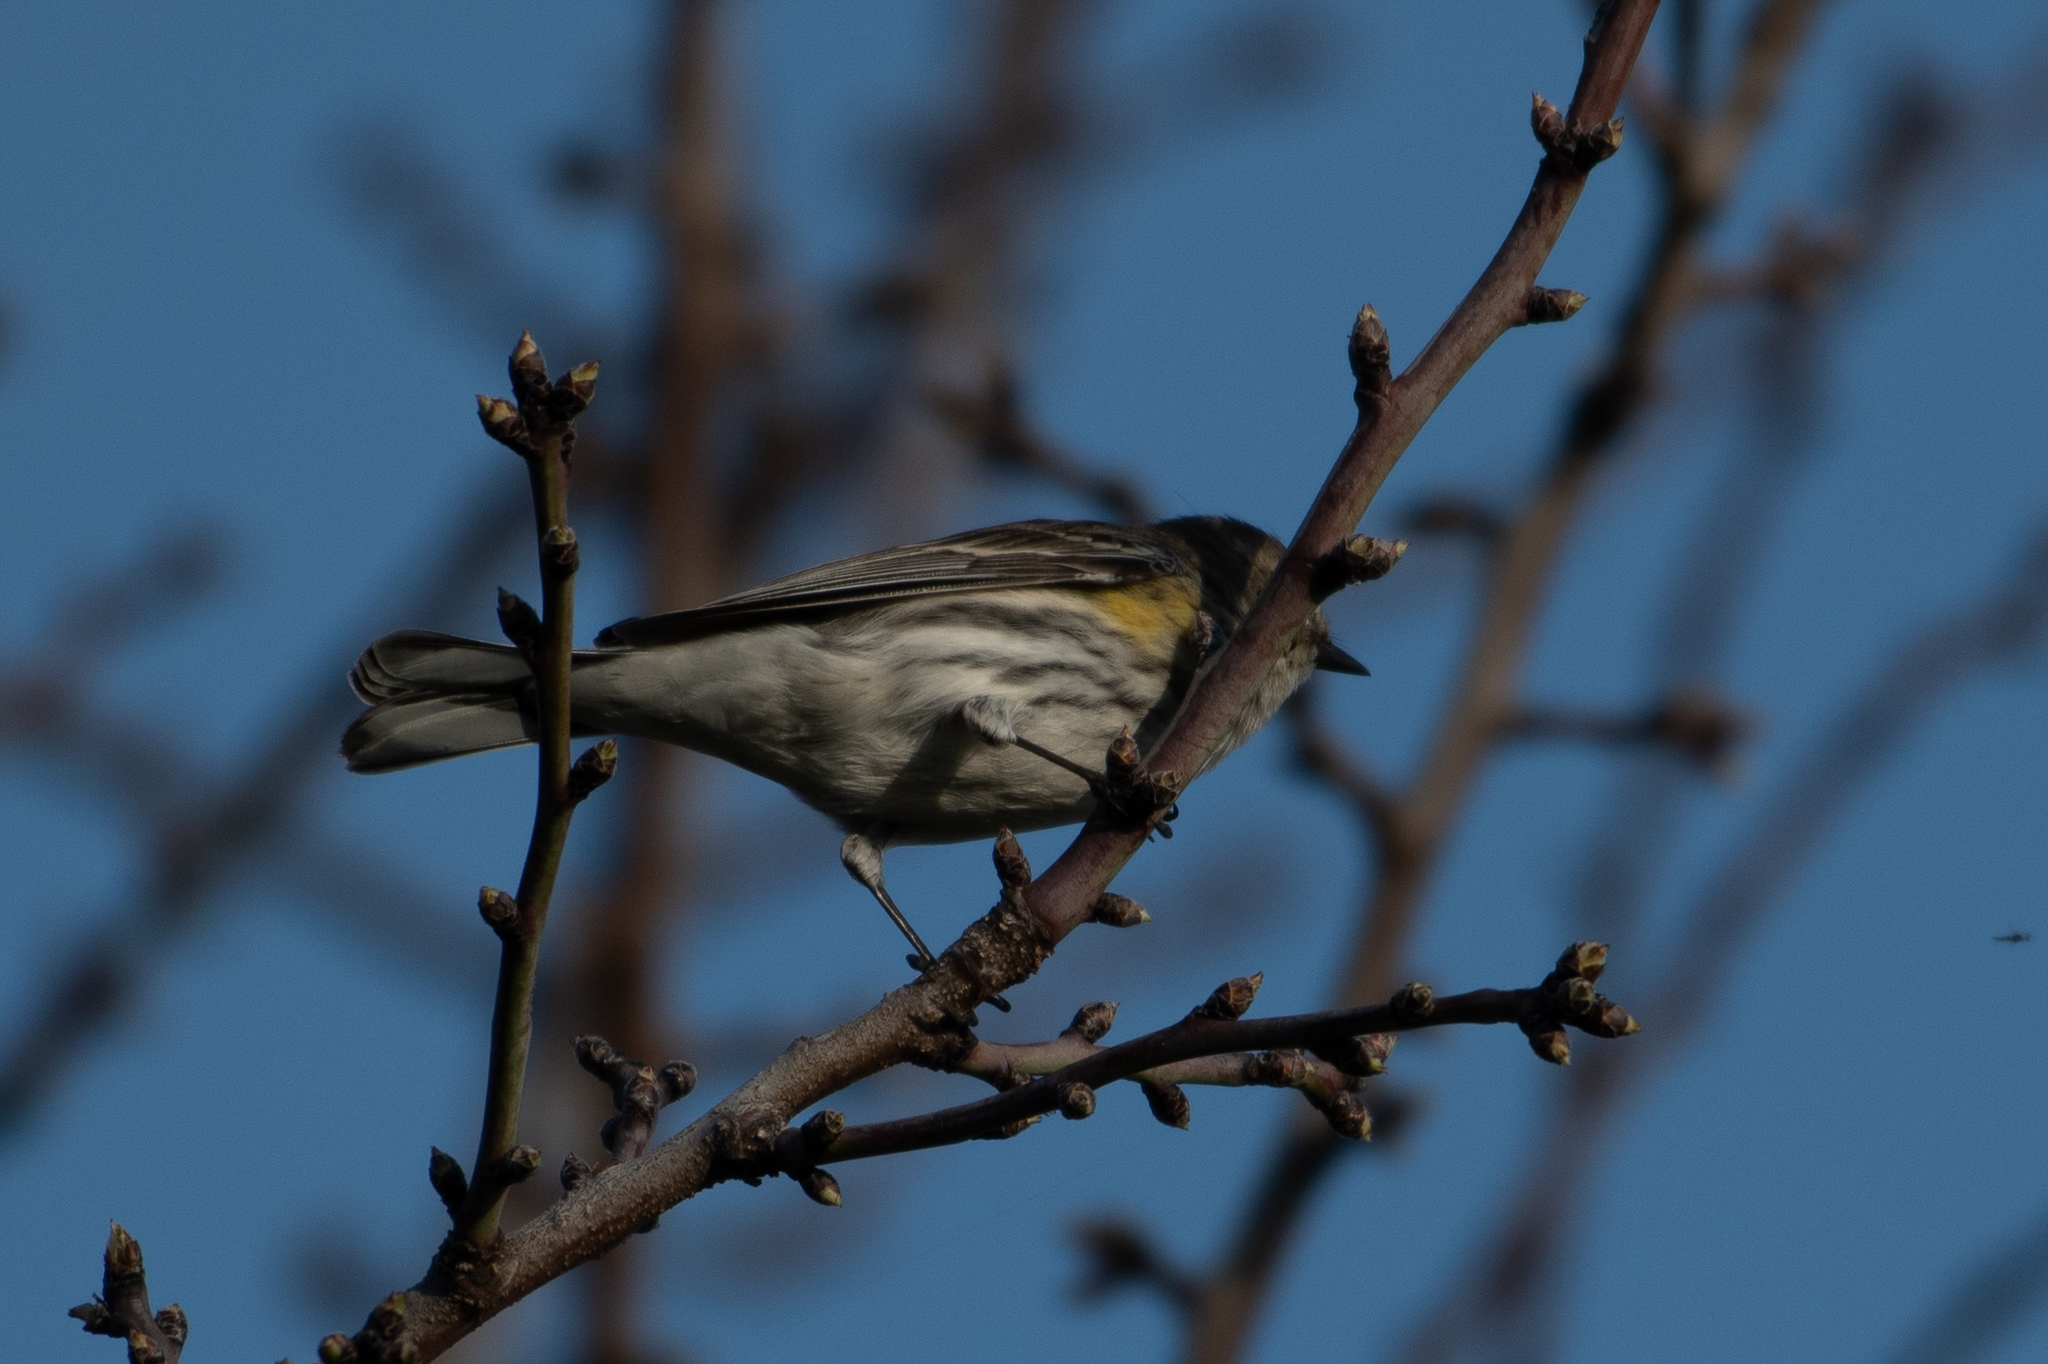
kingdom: Animalia
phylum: Chordata
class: Aves
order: Passeriformes
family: Parulidae
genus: Setophaga
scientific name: Setophaga coronata
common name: Myrtle warbler
